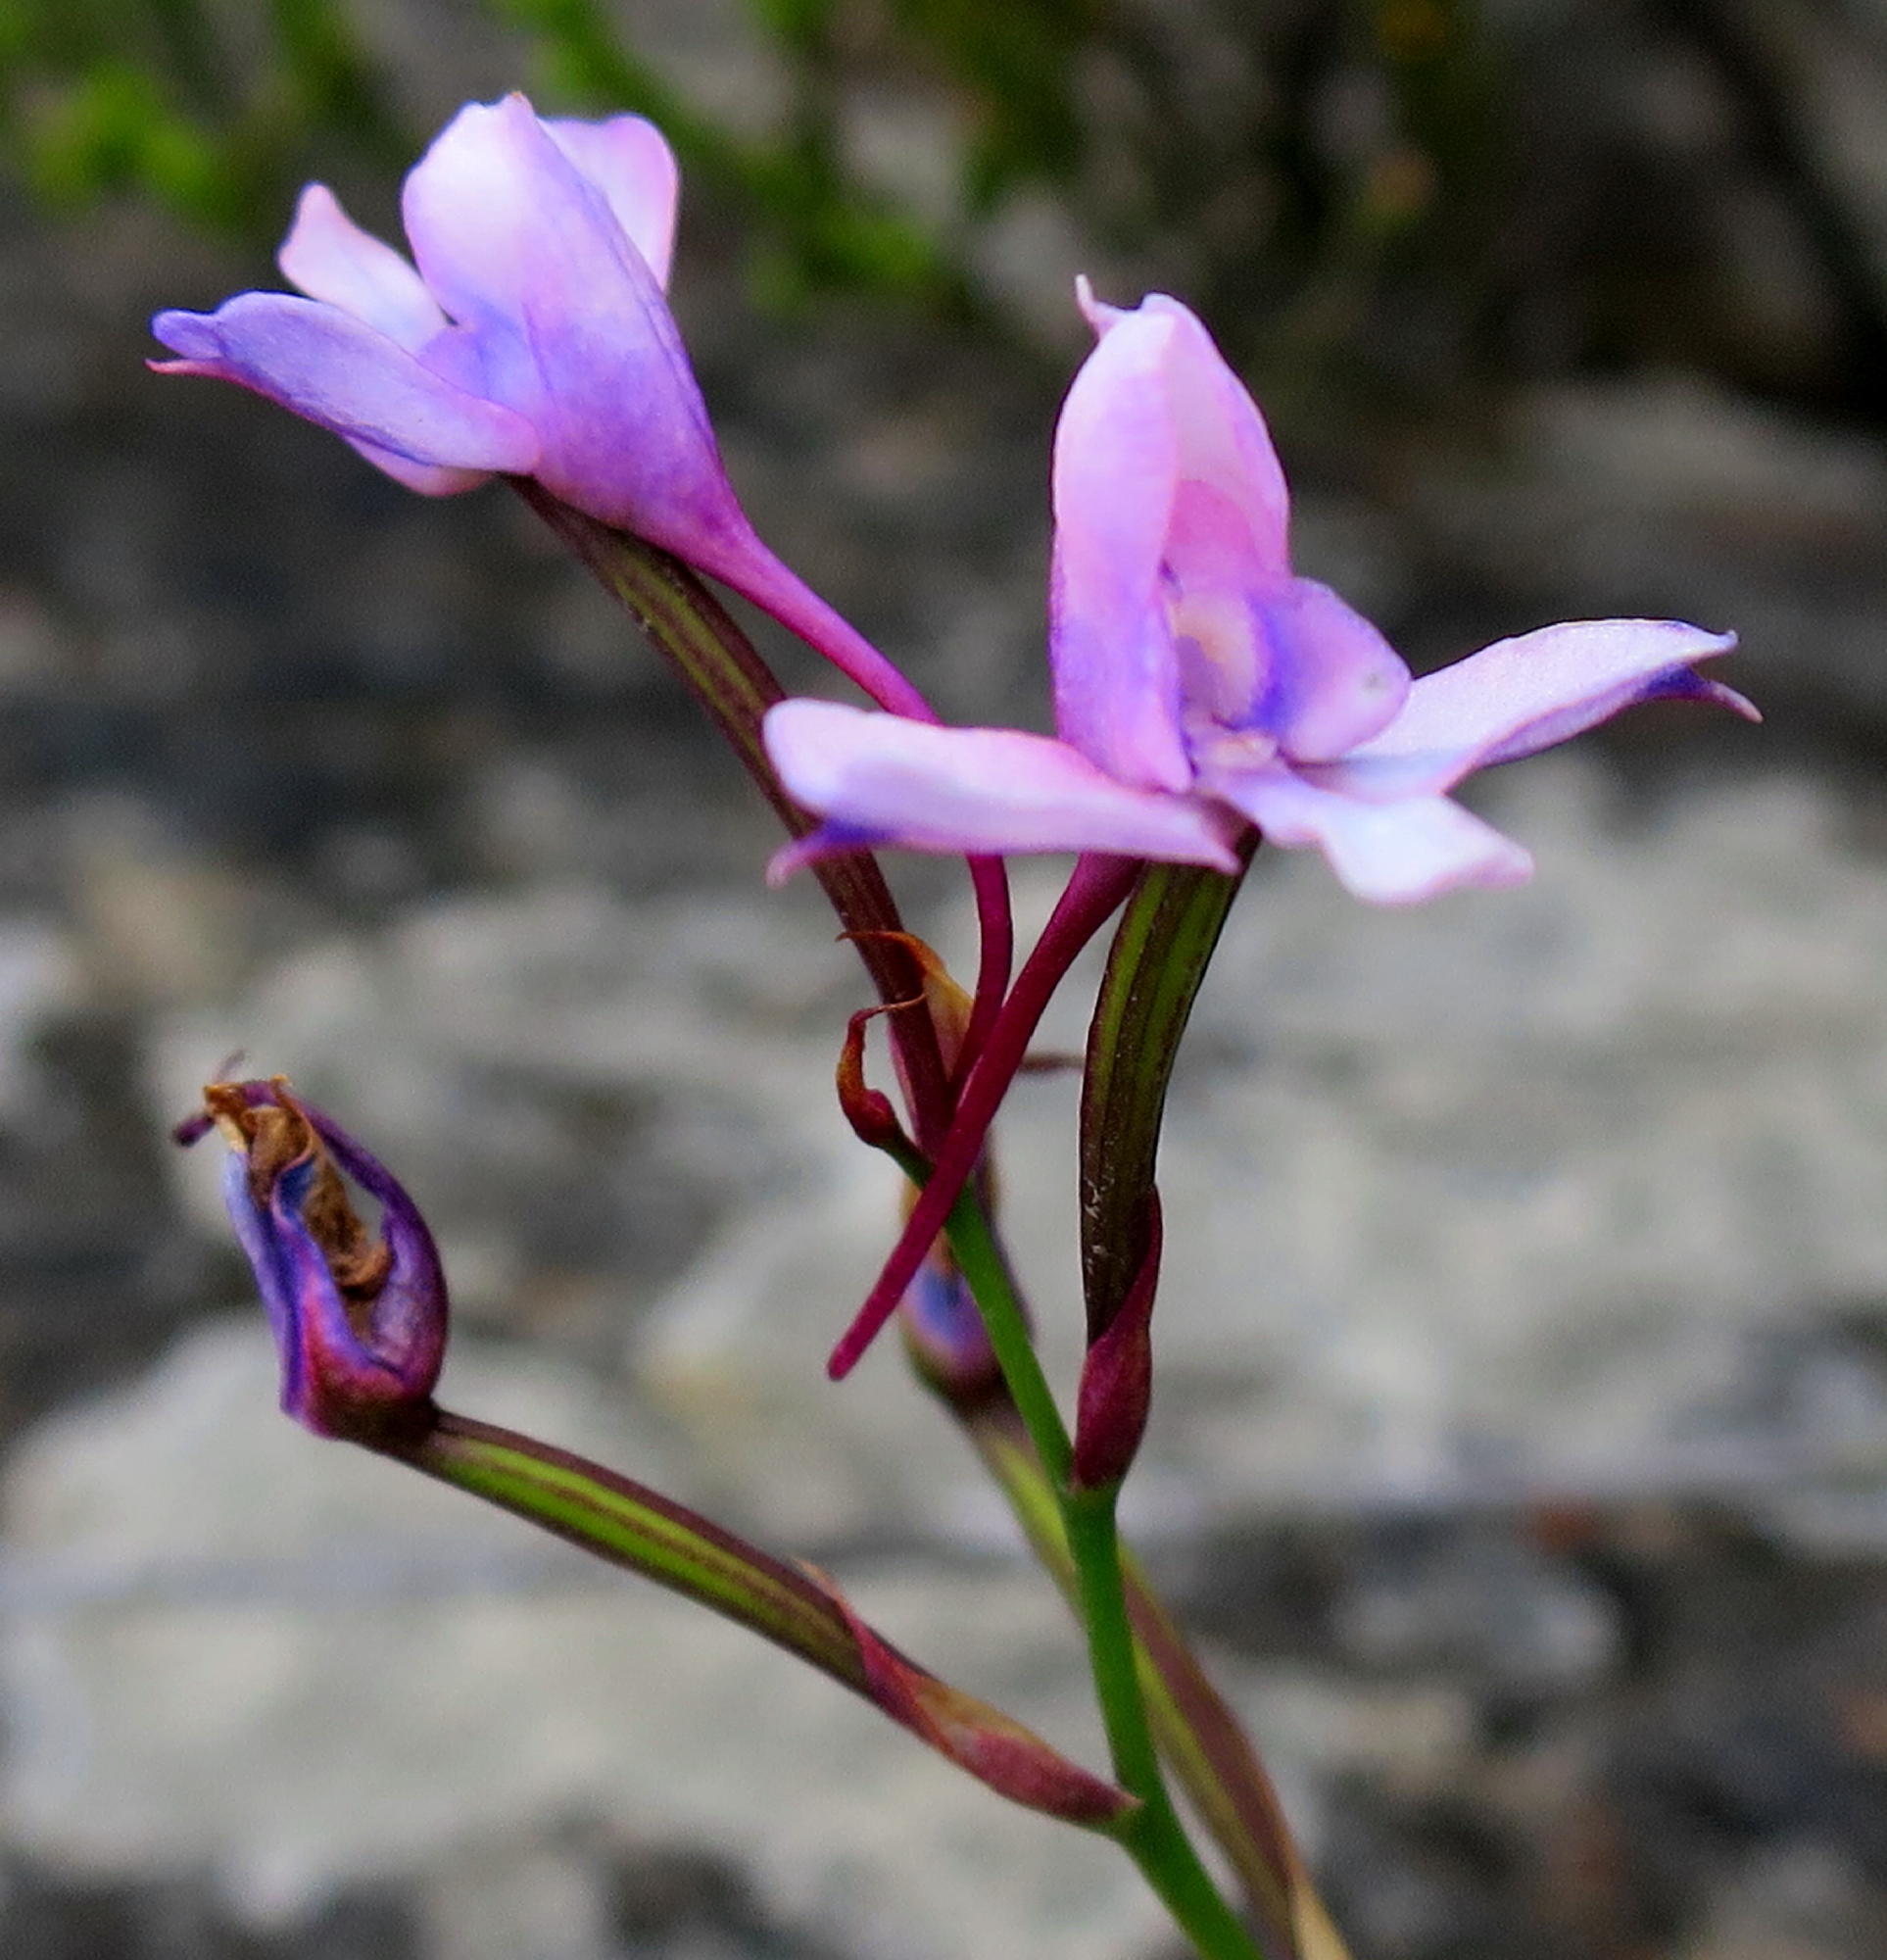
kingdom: Plantae
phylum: Tracheophyta
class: Liliopsida
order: Asparagales
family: Orchidaceae
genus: Disa
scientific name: Disa arida
